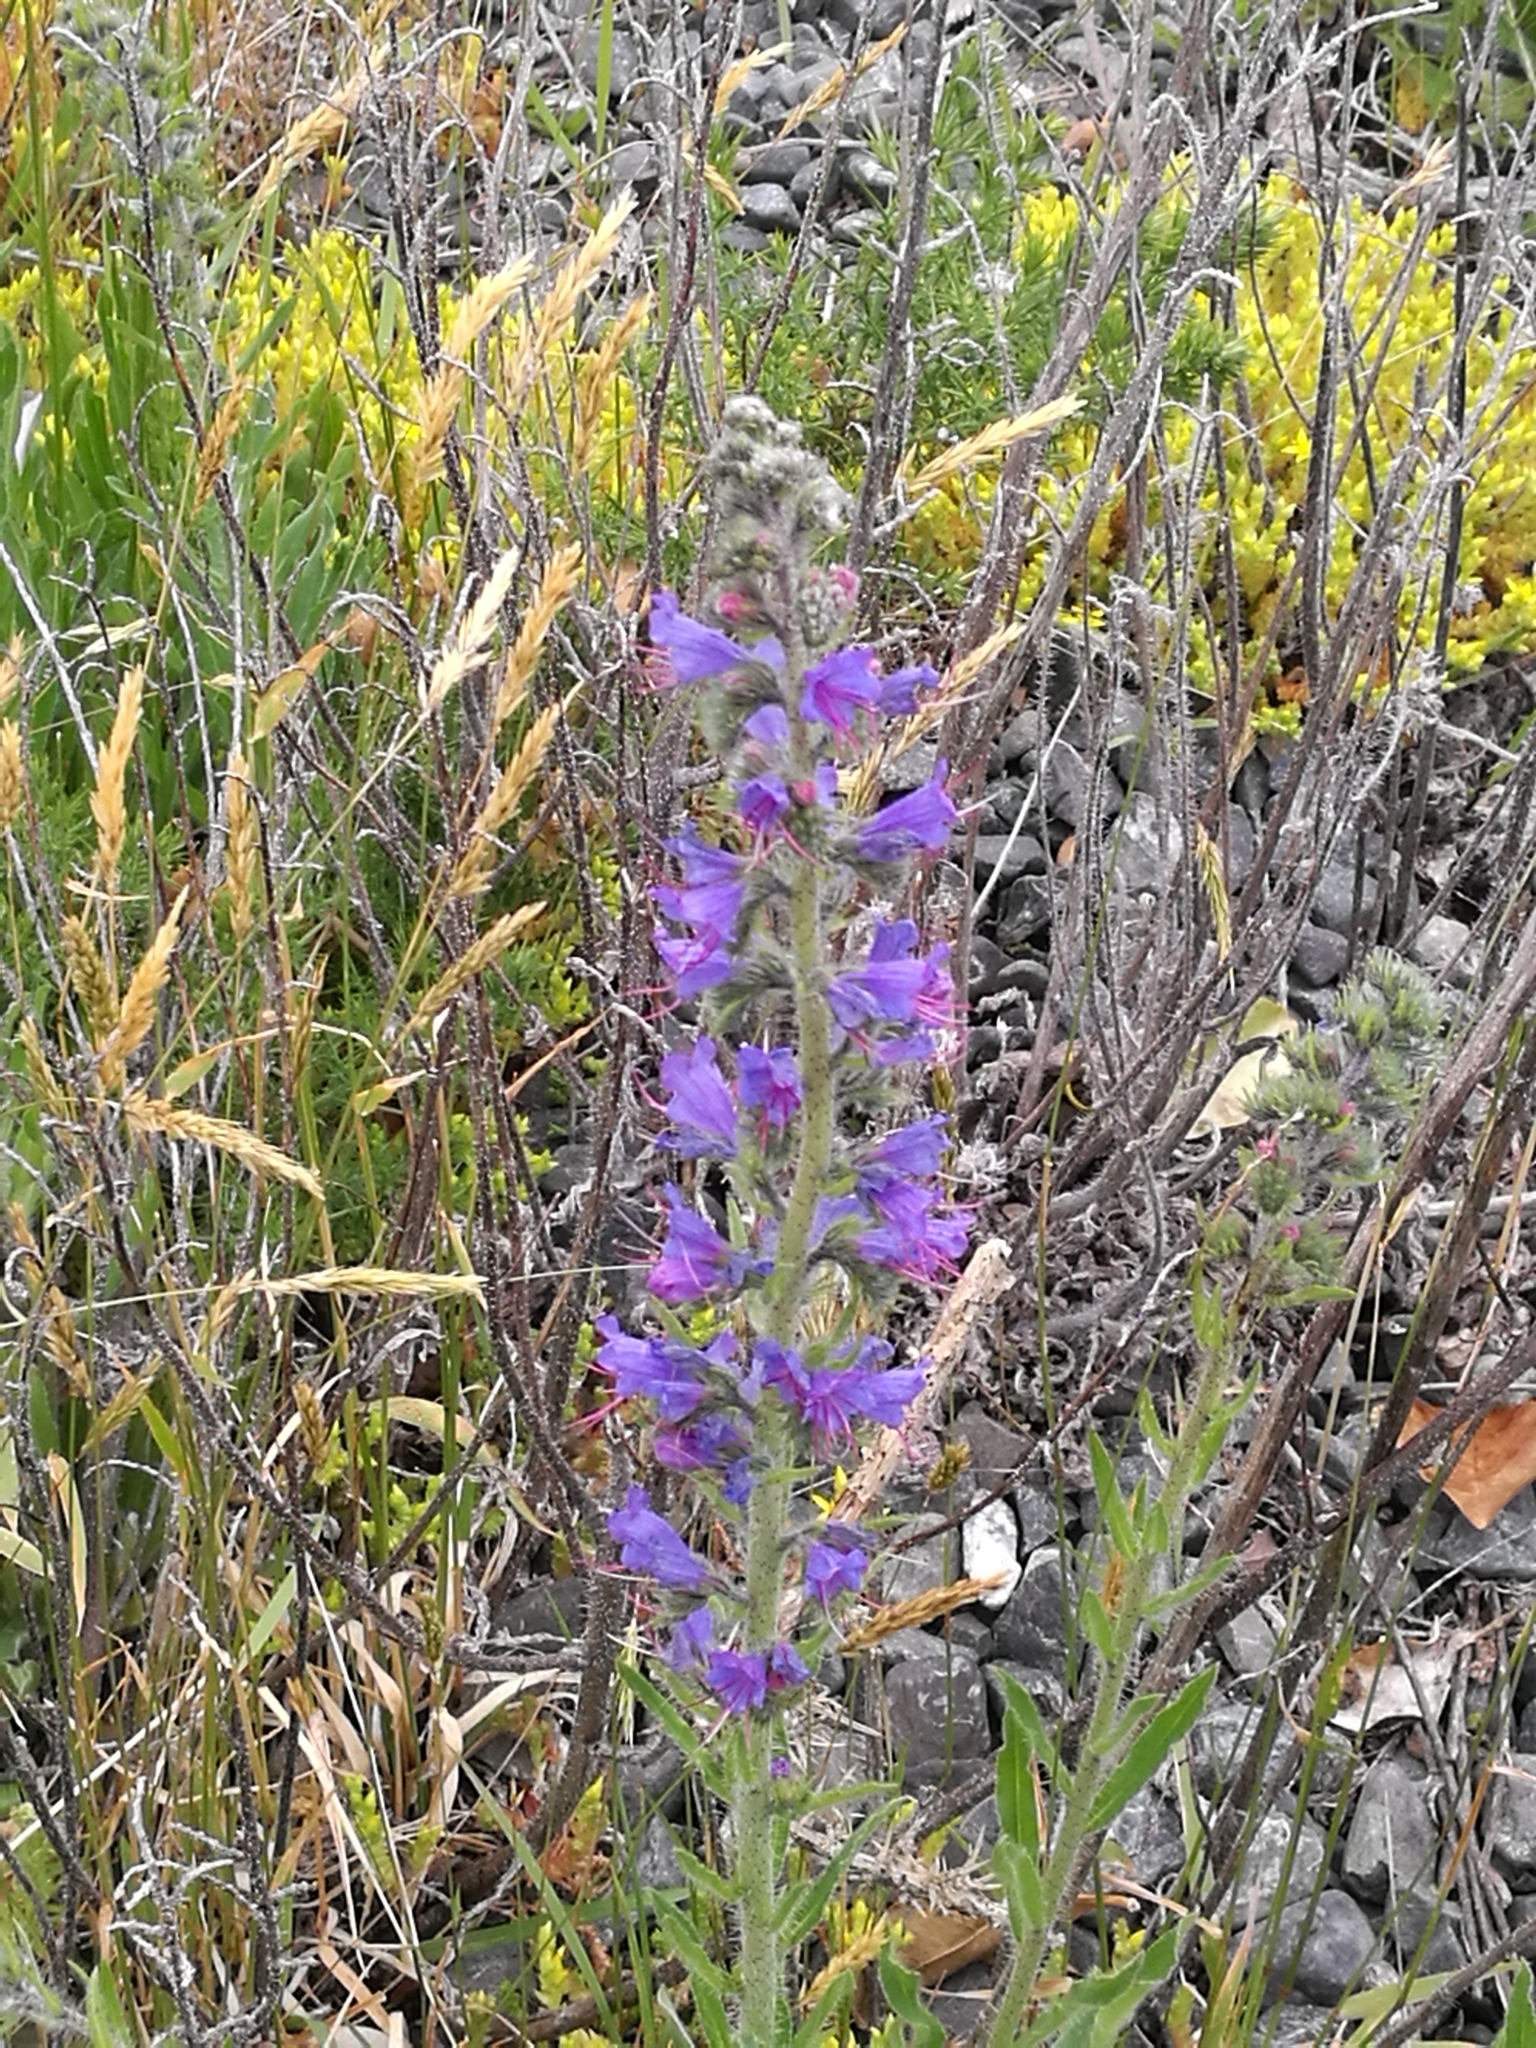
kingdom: Plantae
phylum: Tracheophyta
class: Magnoliopsida
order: Boraginales
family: Boraginaceae
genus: Echium
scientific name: Echium vulgare
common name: Common viper's bugloss
